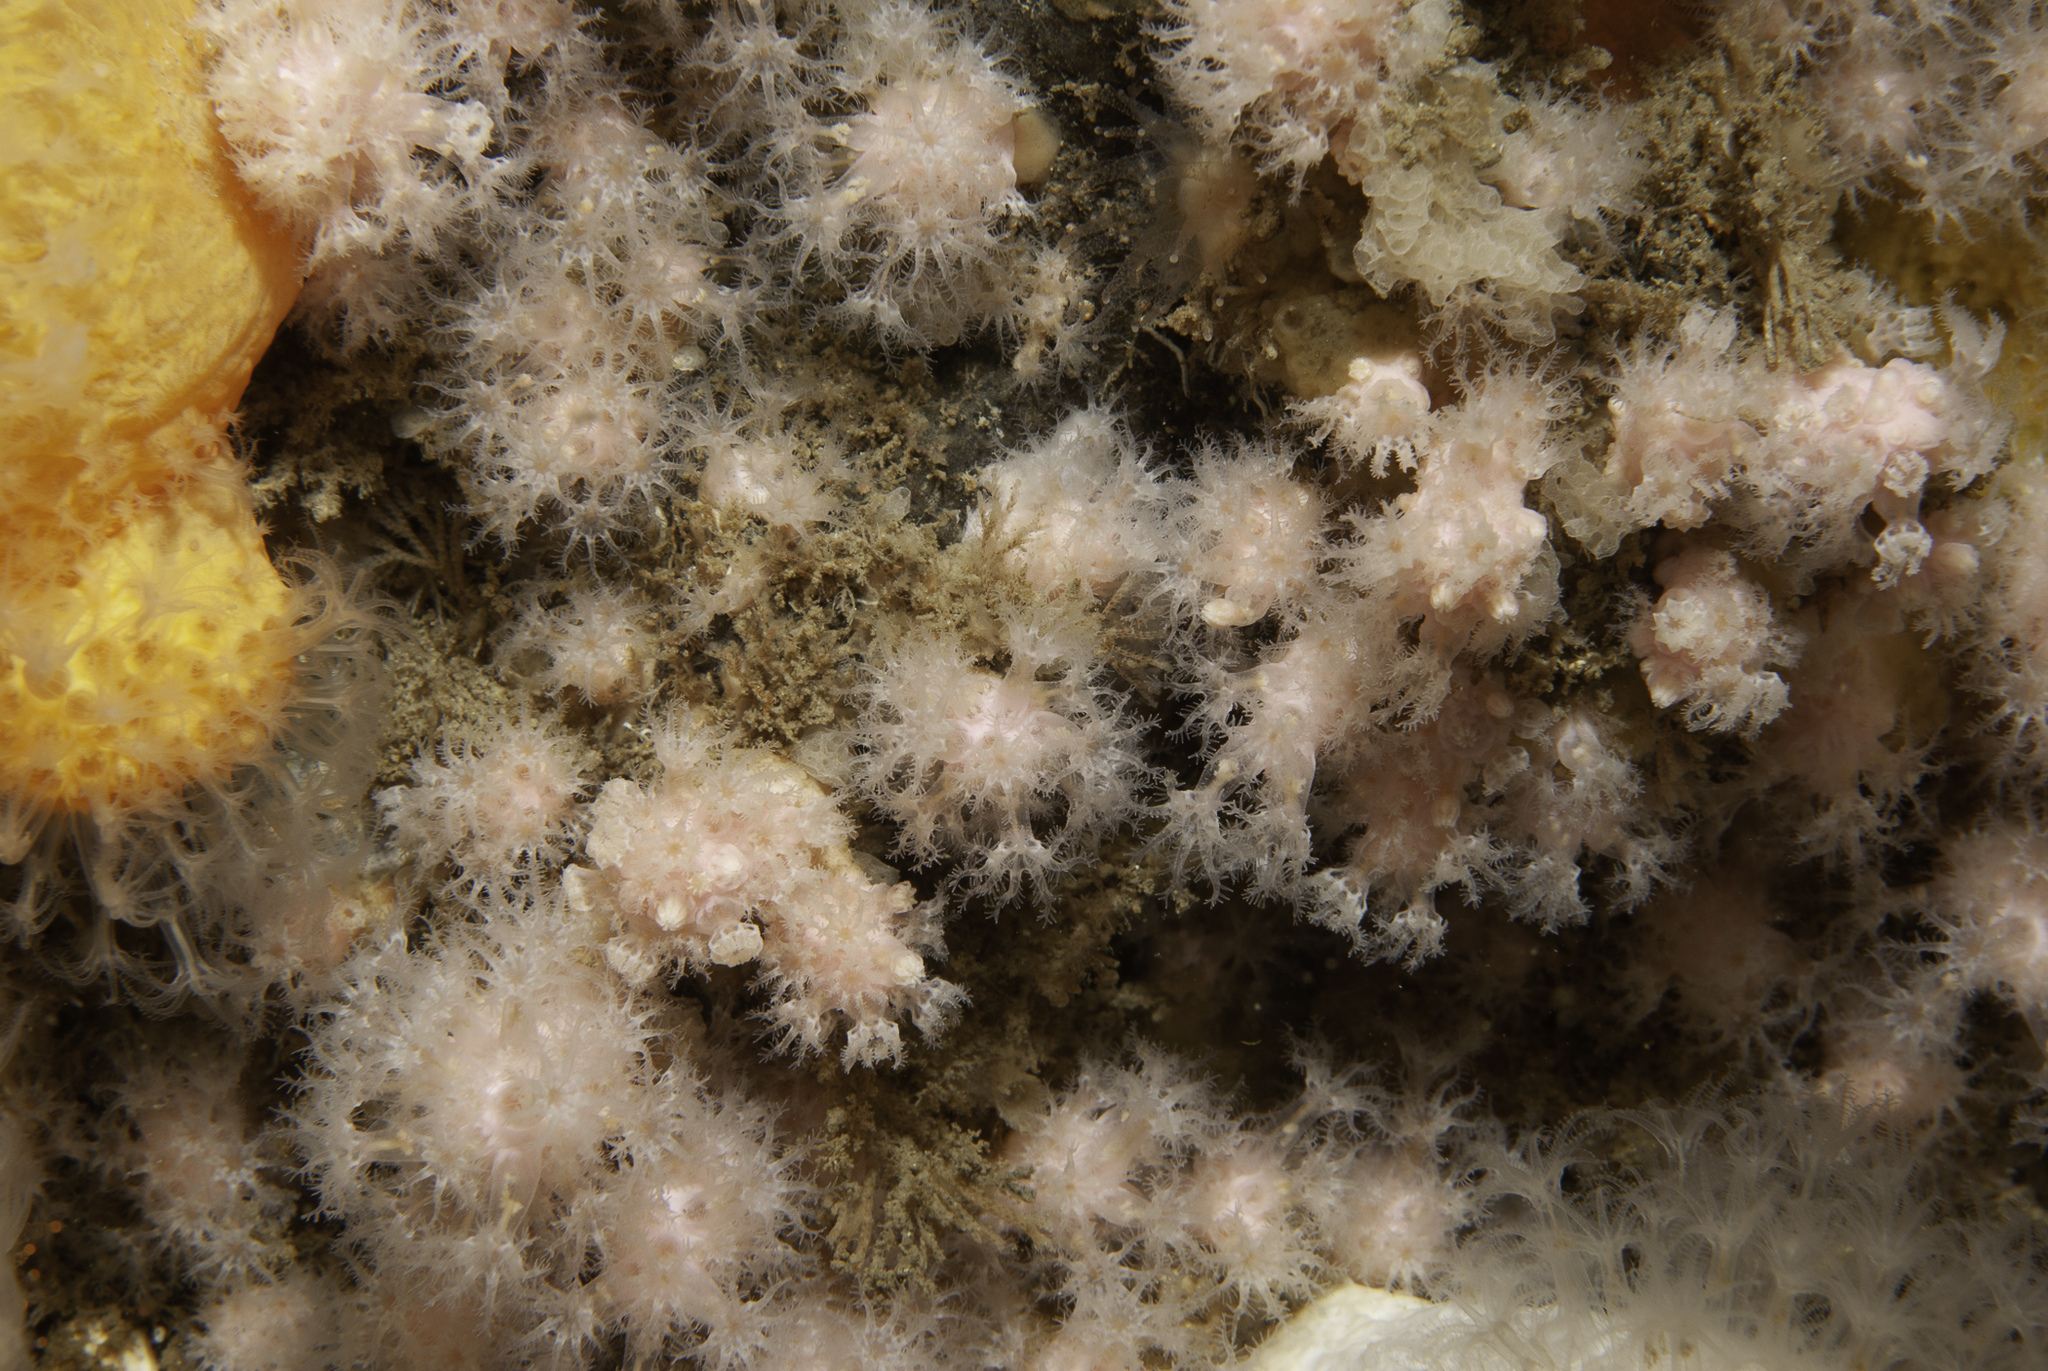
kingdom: Animalia
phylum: Cnidaria
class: Anthozoa
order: Malacalcyonacea
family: Alcyoniidae
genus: Alcyonium
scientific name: Alcyonium hibernicum
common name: Pink sea fingers
